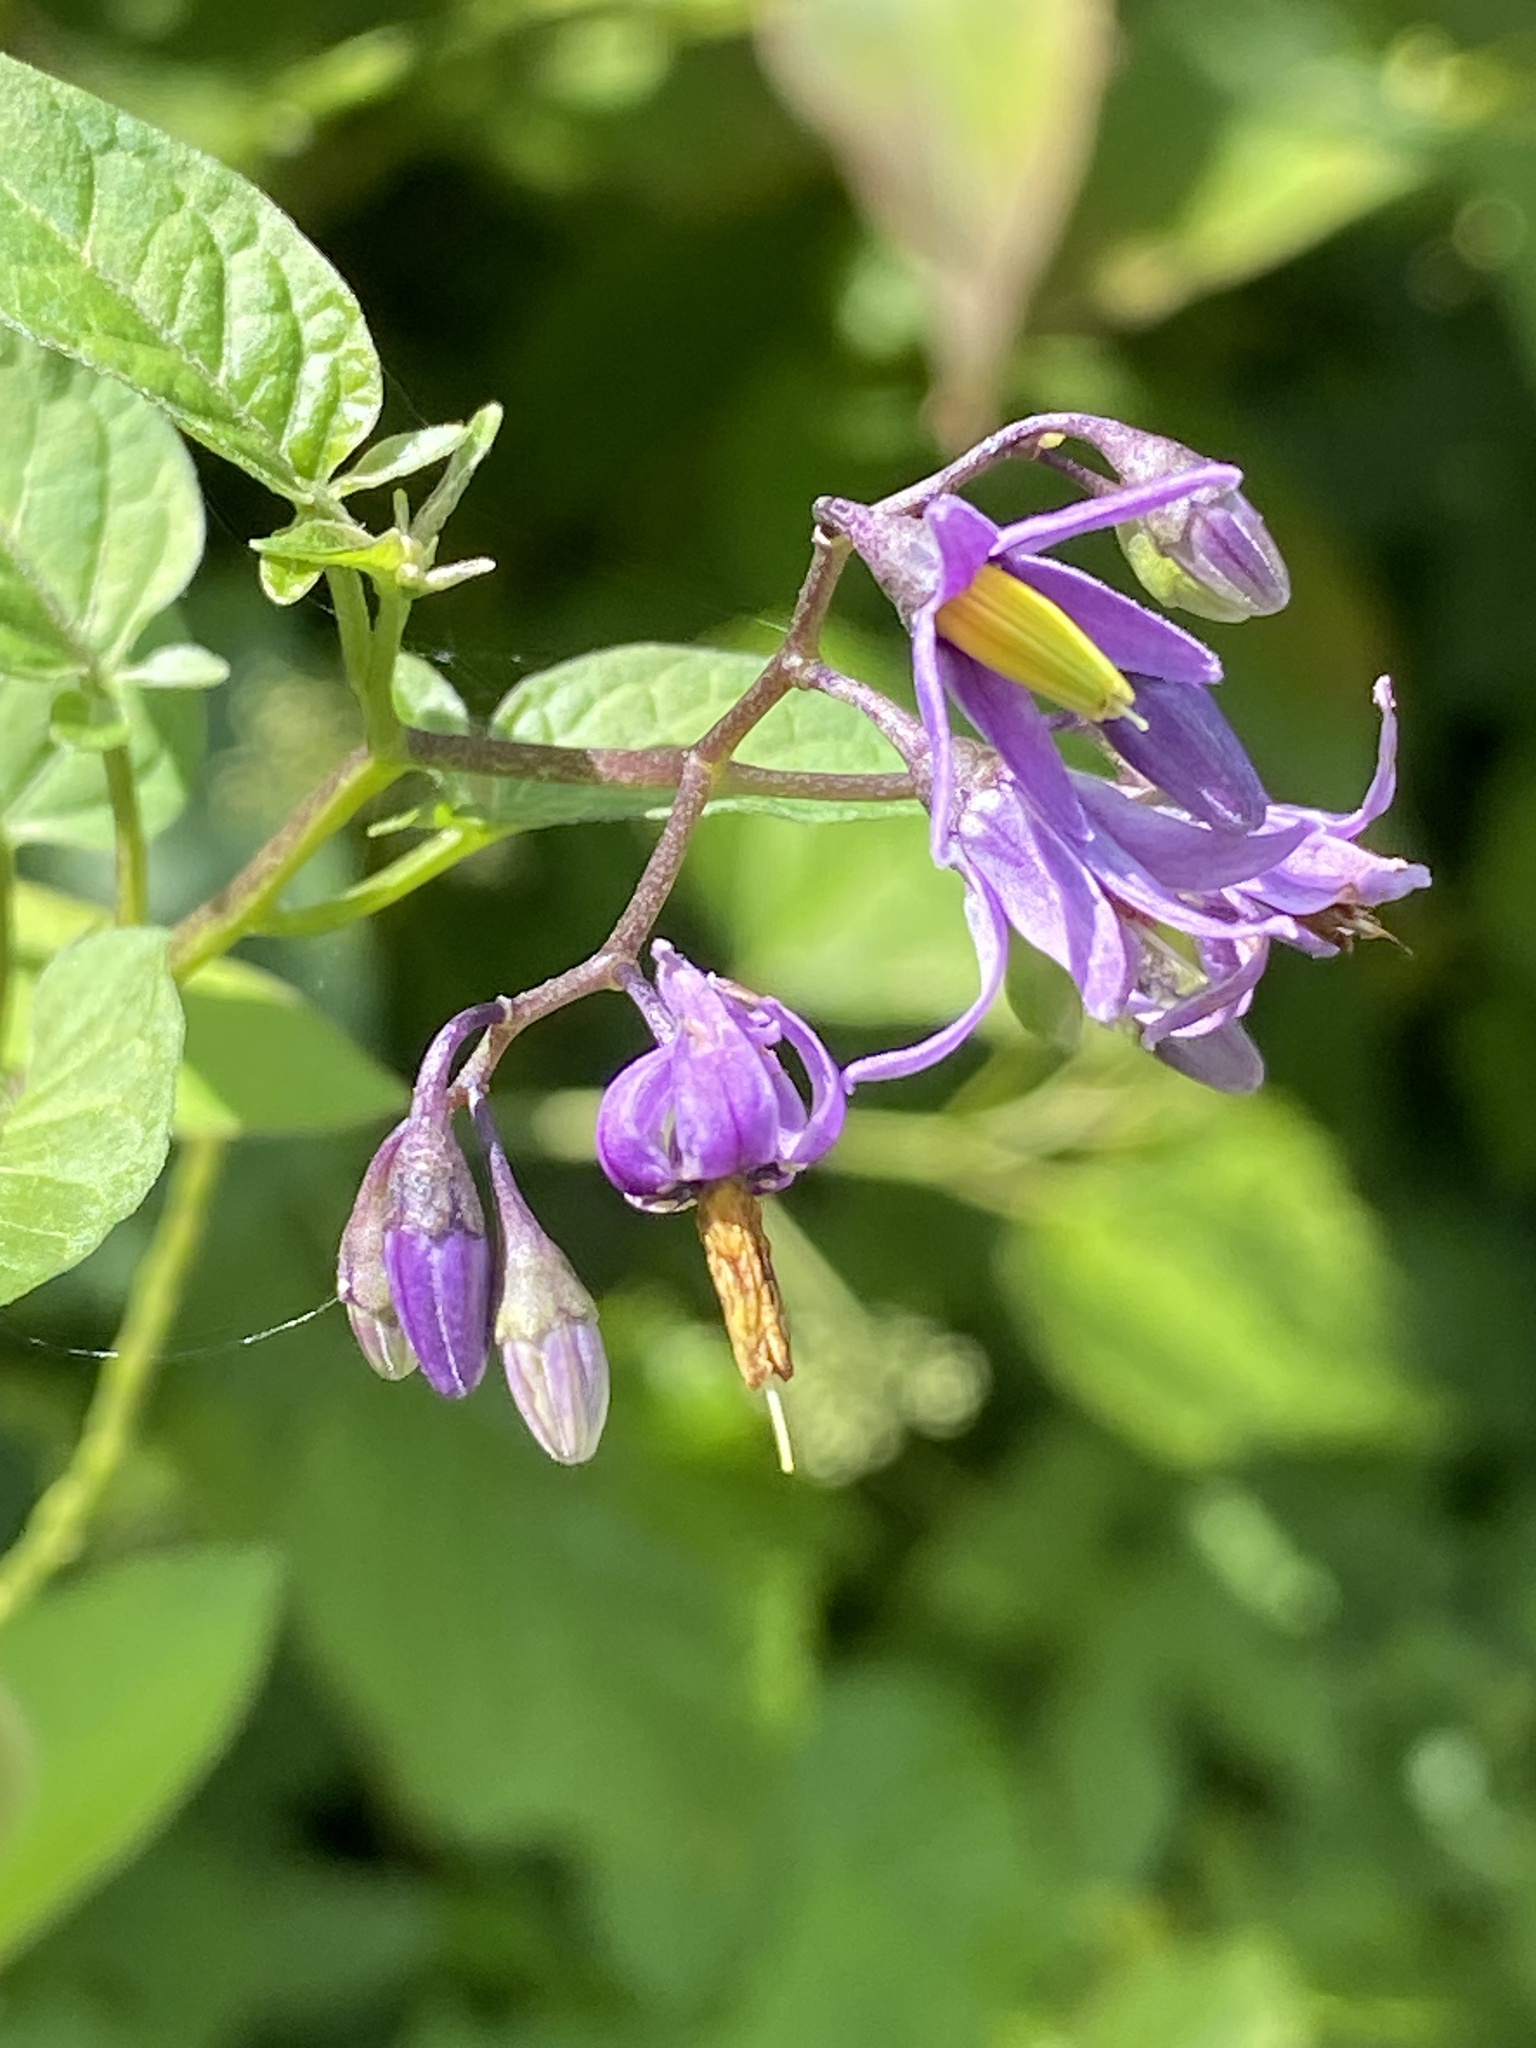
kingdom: Plantae
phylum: Tracheophyta
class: Magnoliopsida
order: Solanales
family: Solanaceae
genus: Solanum
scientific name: Solanum dulcamara
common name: Climbing nightshade
